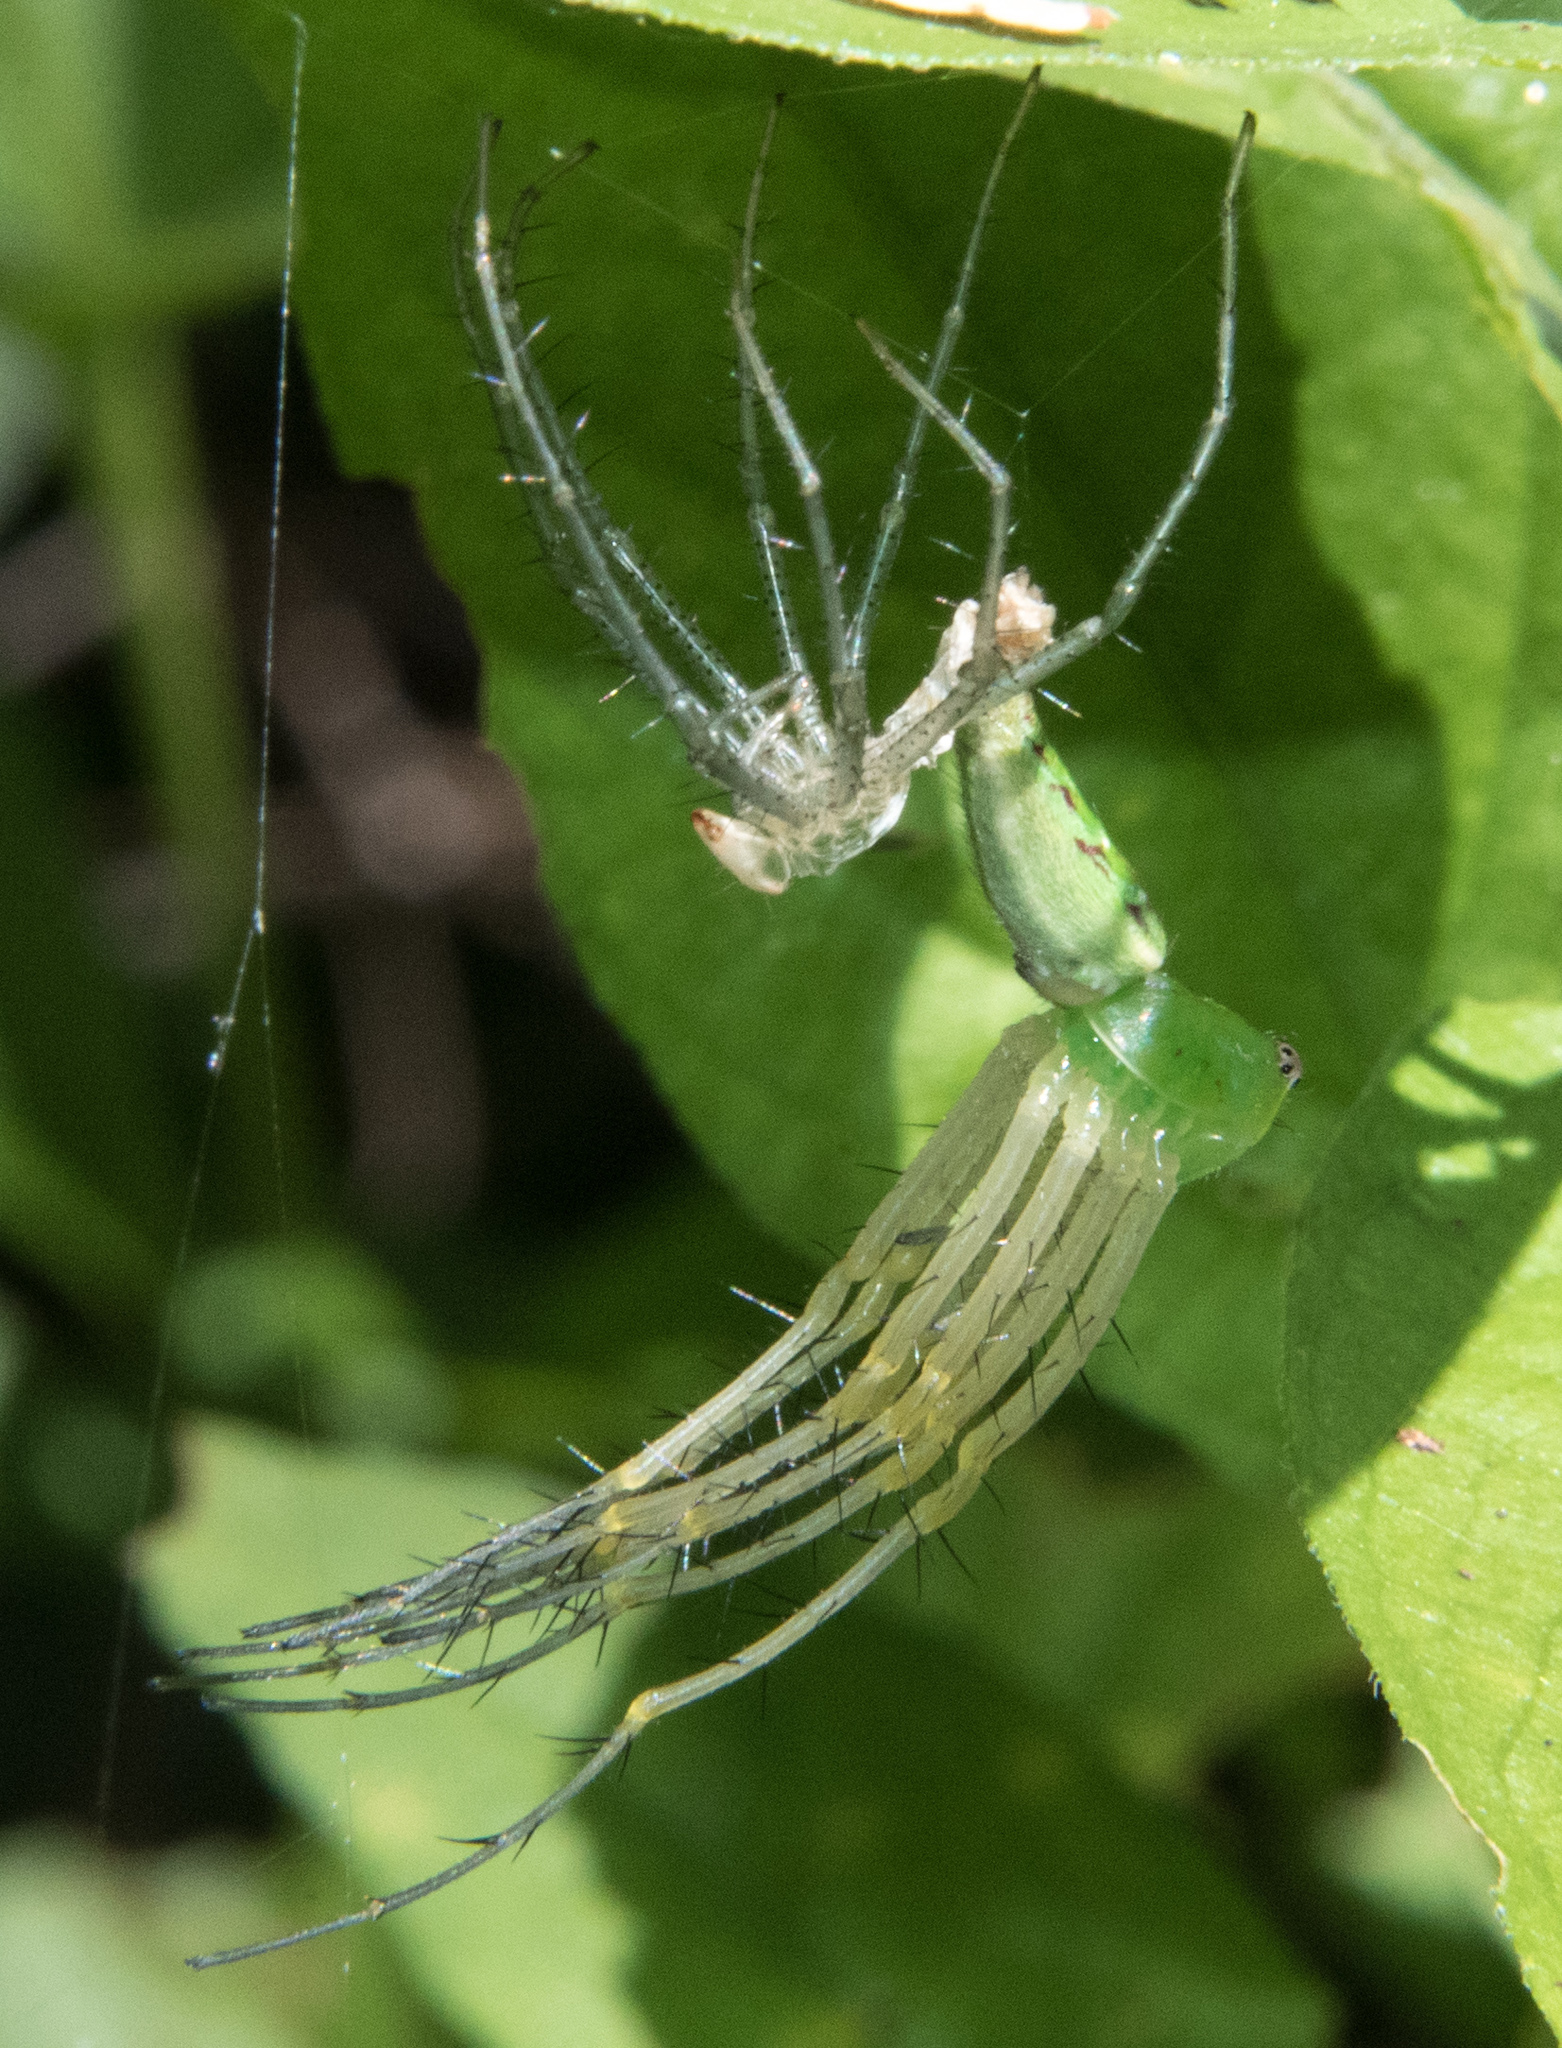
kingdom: Animalia
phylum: Arthropoda
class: Arachnida
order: Araneae
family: Oxyopidae
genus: Peucetia
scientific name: Peucetia viridans
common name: Lynx spiders
